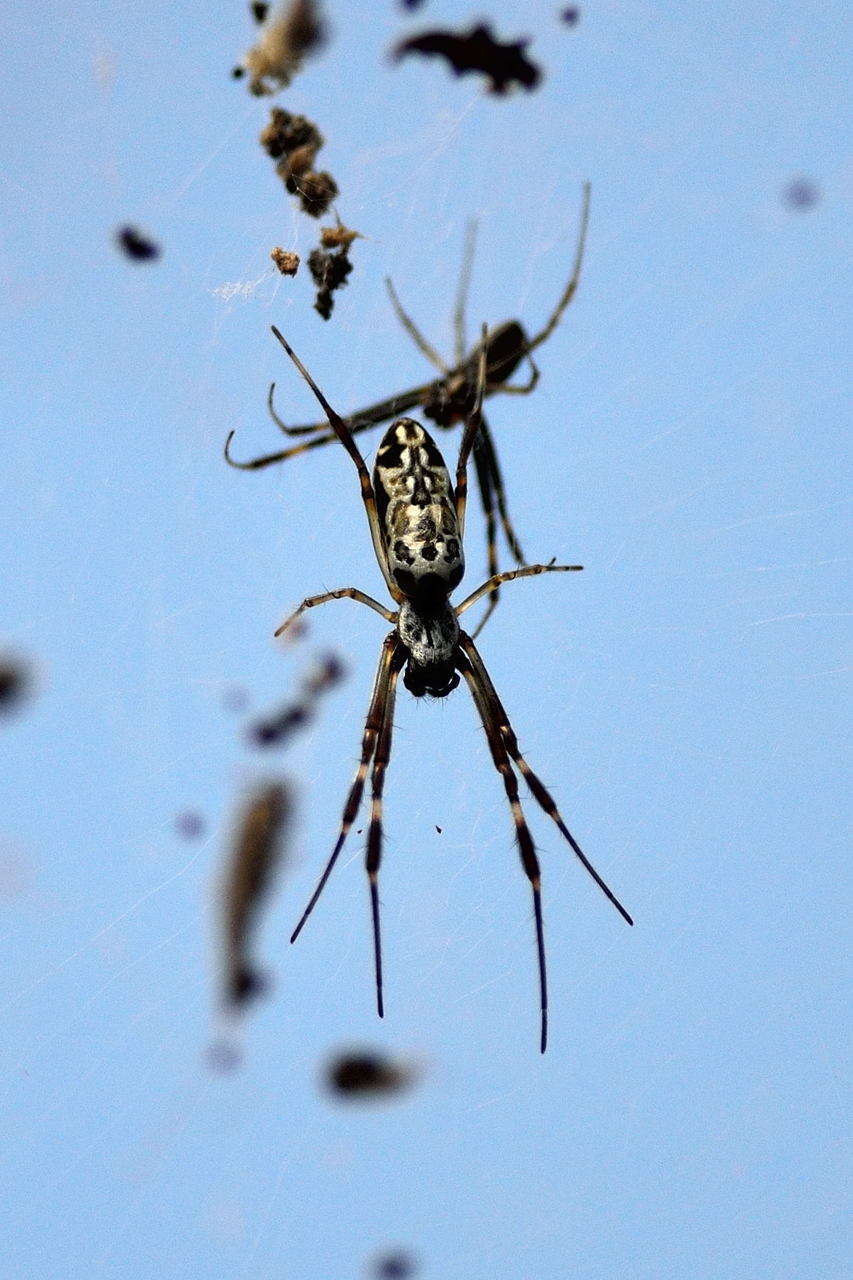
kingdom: Animalia
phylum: Arthropoda
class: Arachnida
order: Araneae
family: Araneidae
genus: Trichonephila
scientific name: Trichonephila edulis
